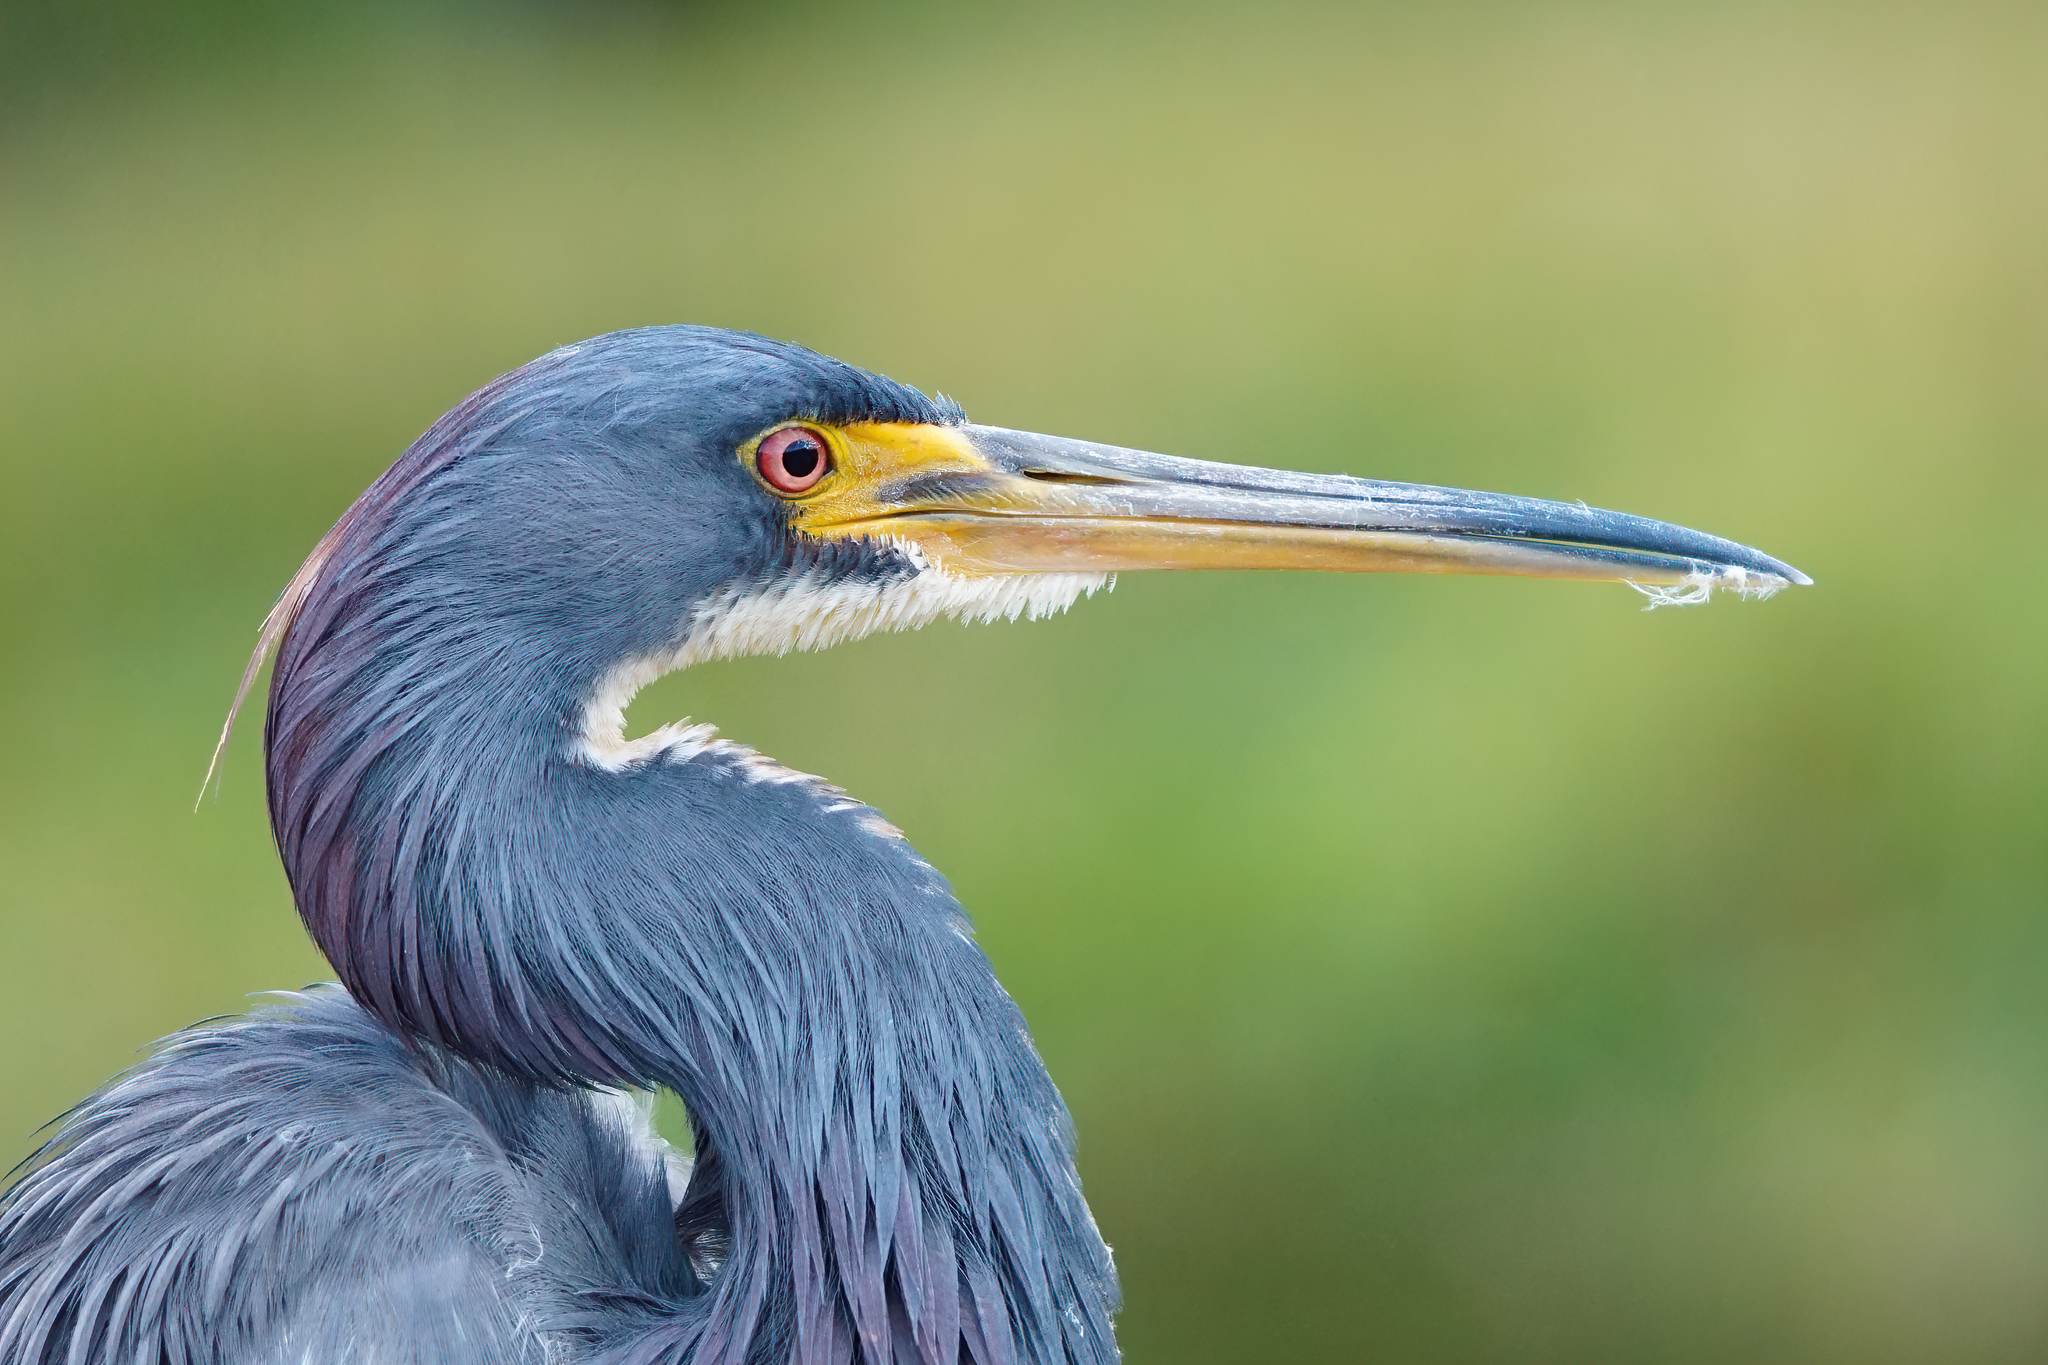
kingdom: Animalia
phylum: Chordata
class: Aves
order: Pelecaniformes
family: Ardeidae
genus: Egretta
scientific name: Egretta tricolor
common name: Tricolored heron
